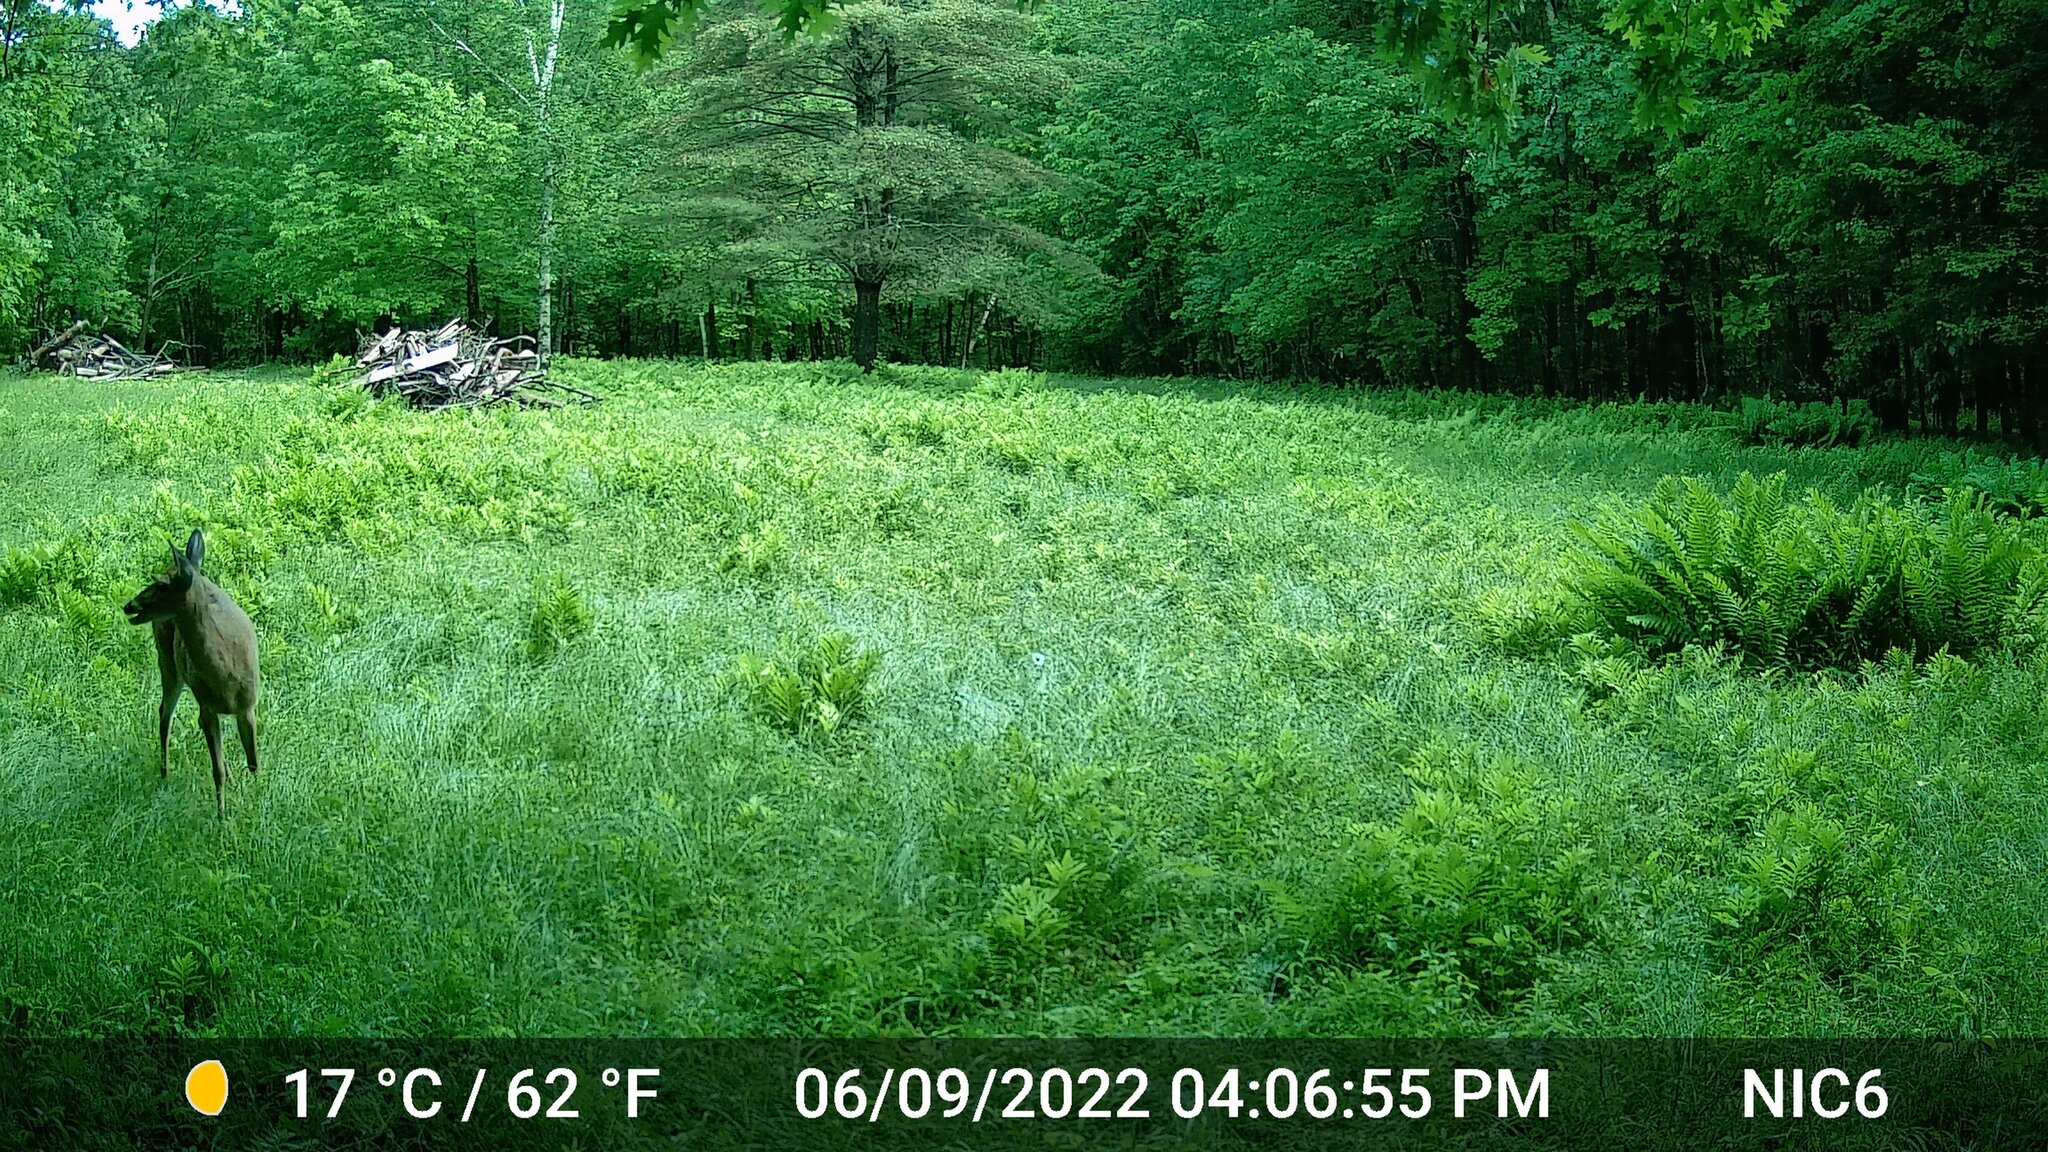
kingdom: Animalia
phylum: Chordata
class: Mammalia
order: Artiodactyla
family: Cervidae
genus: Odocoileus
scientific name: Odocoileus virginianus
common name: White-tailed deer
